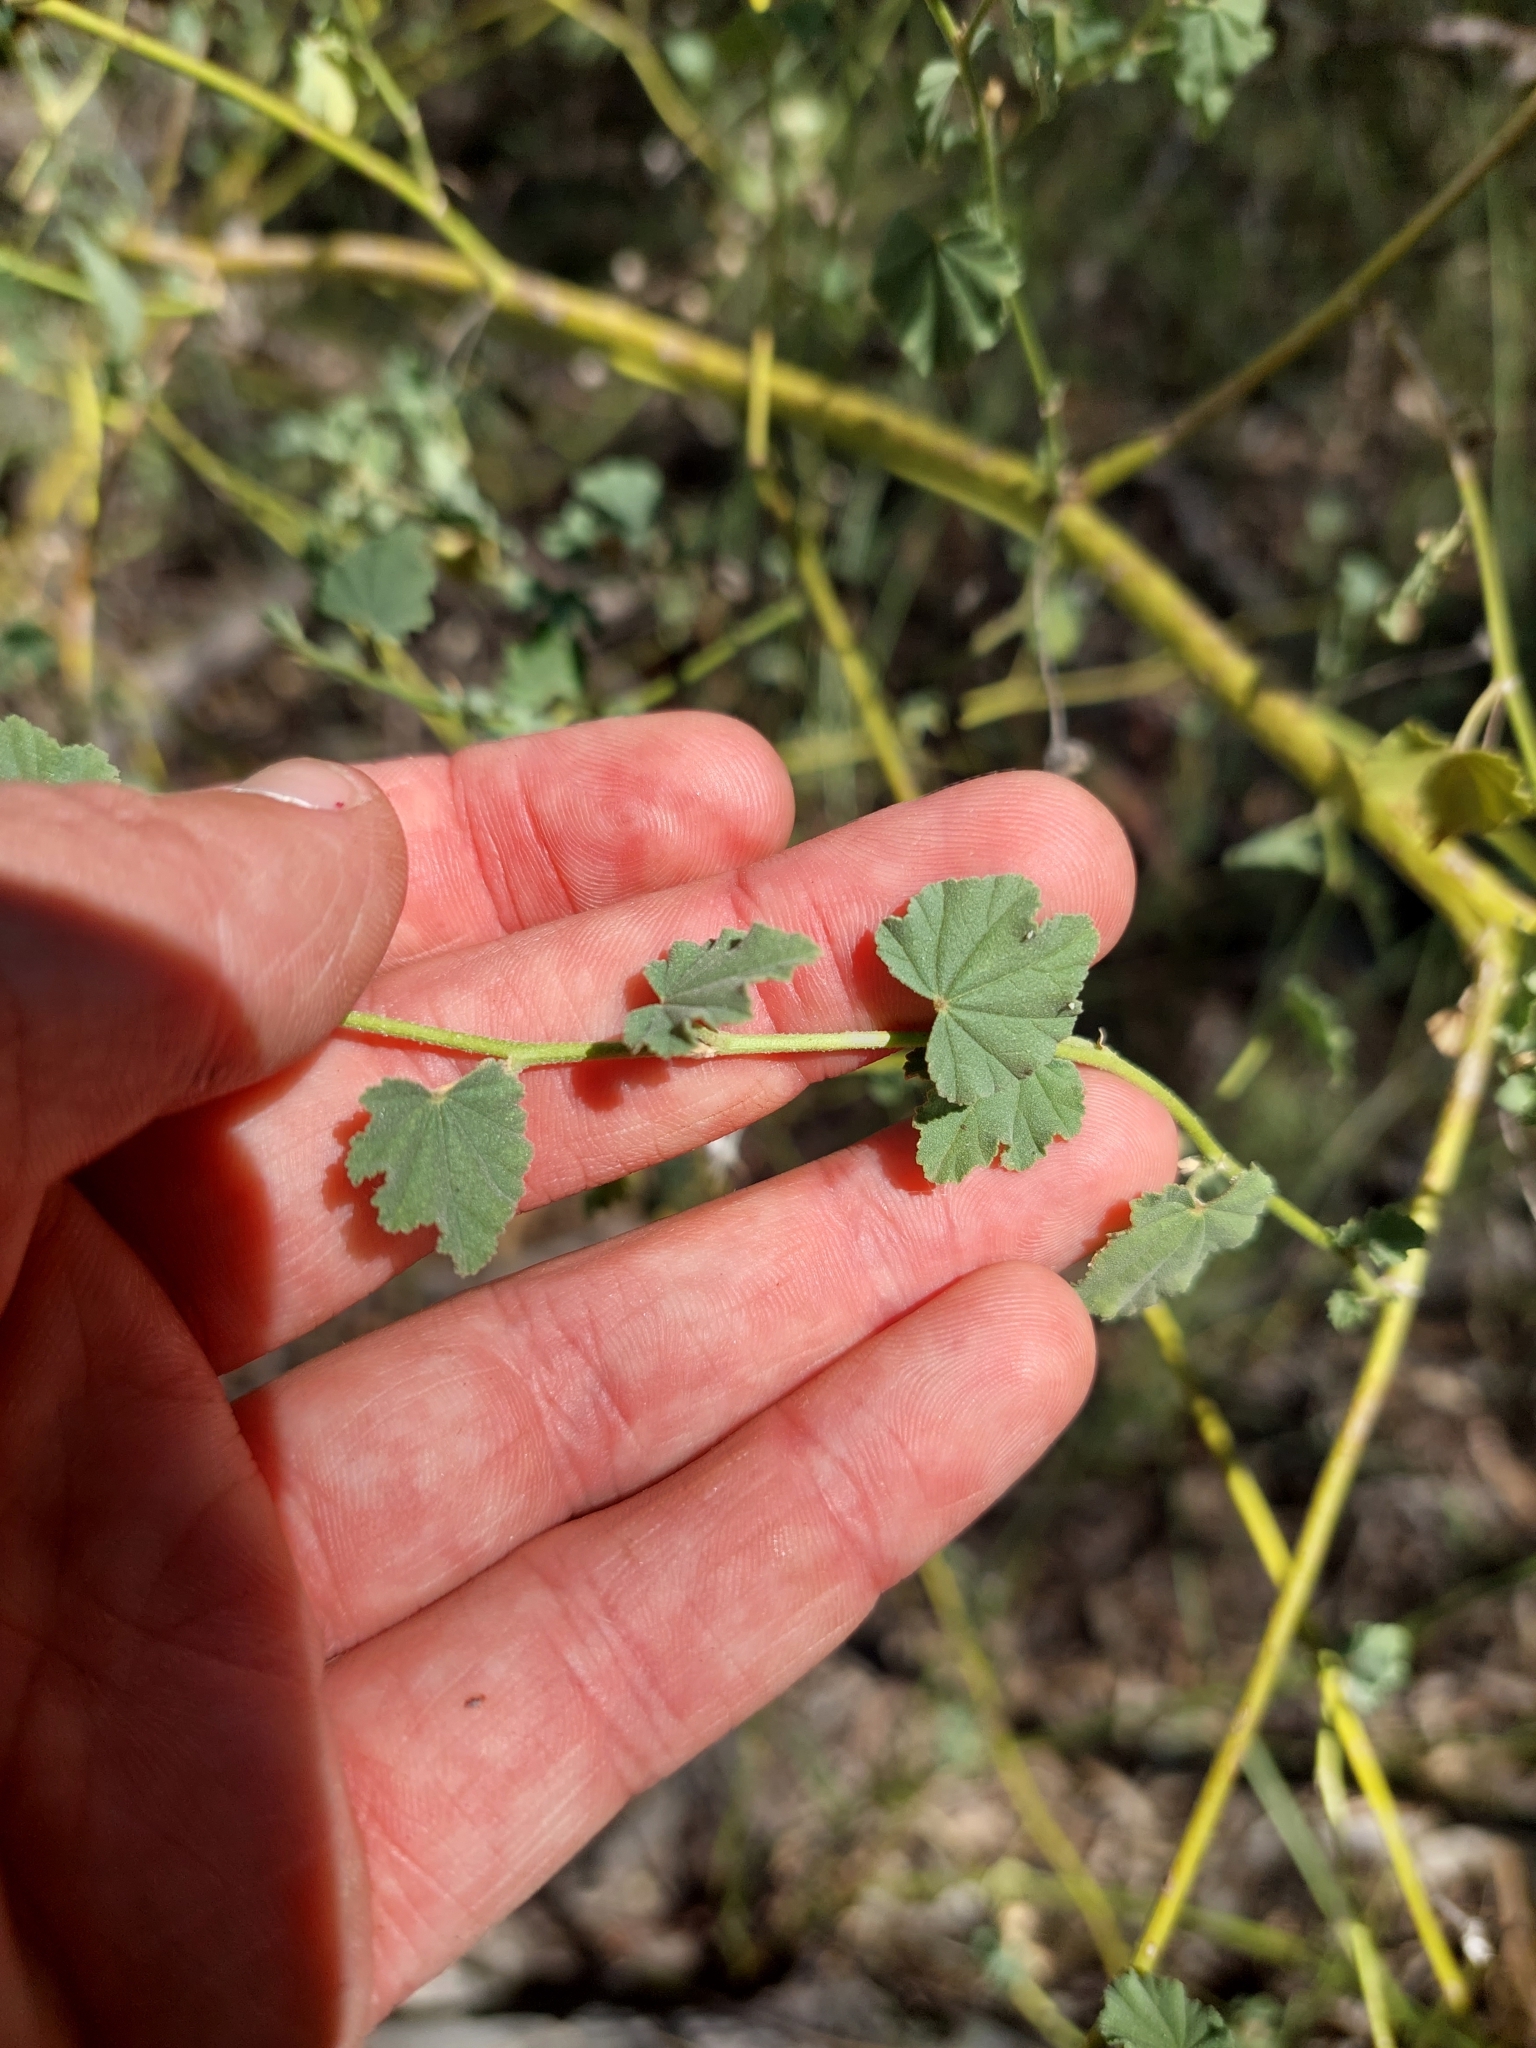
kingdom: Plantae
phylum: Tracheophyta
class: Magnoliopsida
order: Malvales
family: Malvaceae
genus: Malva
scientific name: Malva weinmanniana
